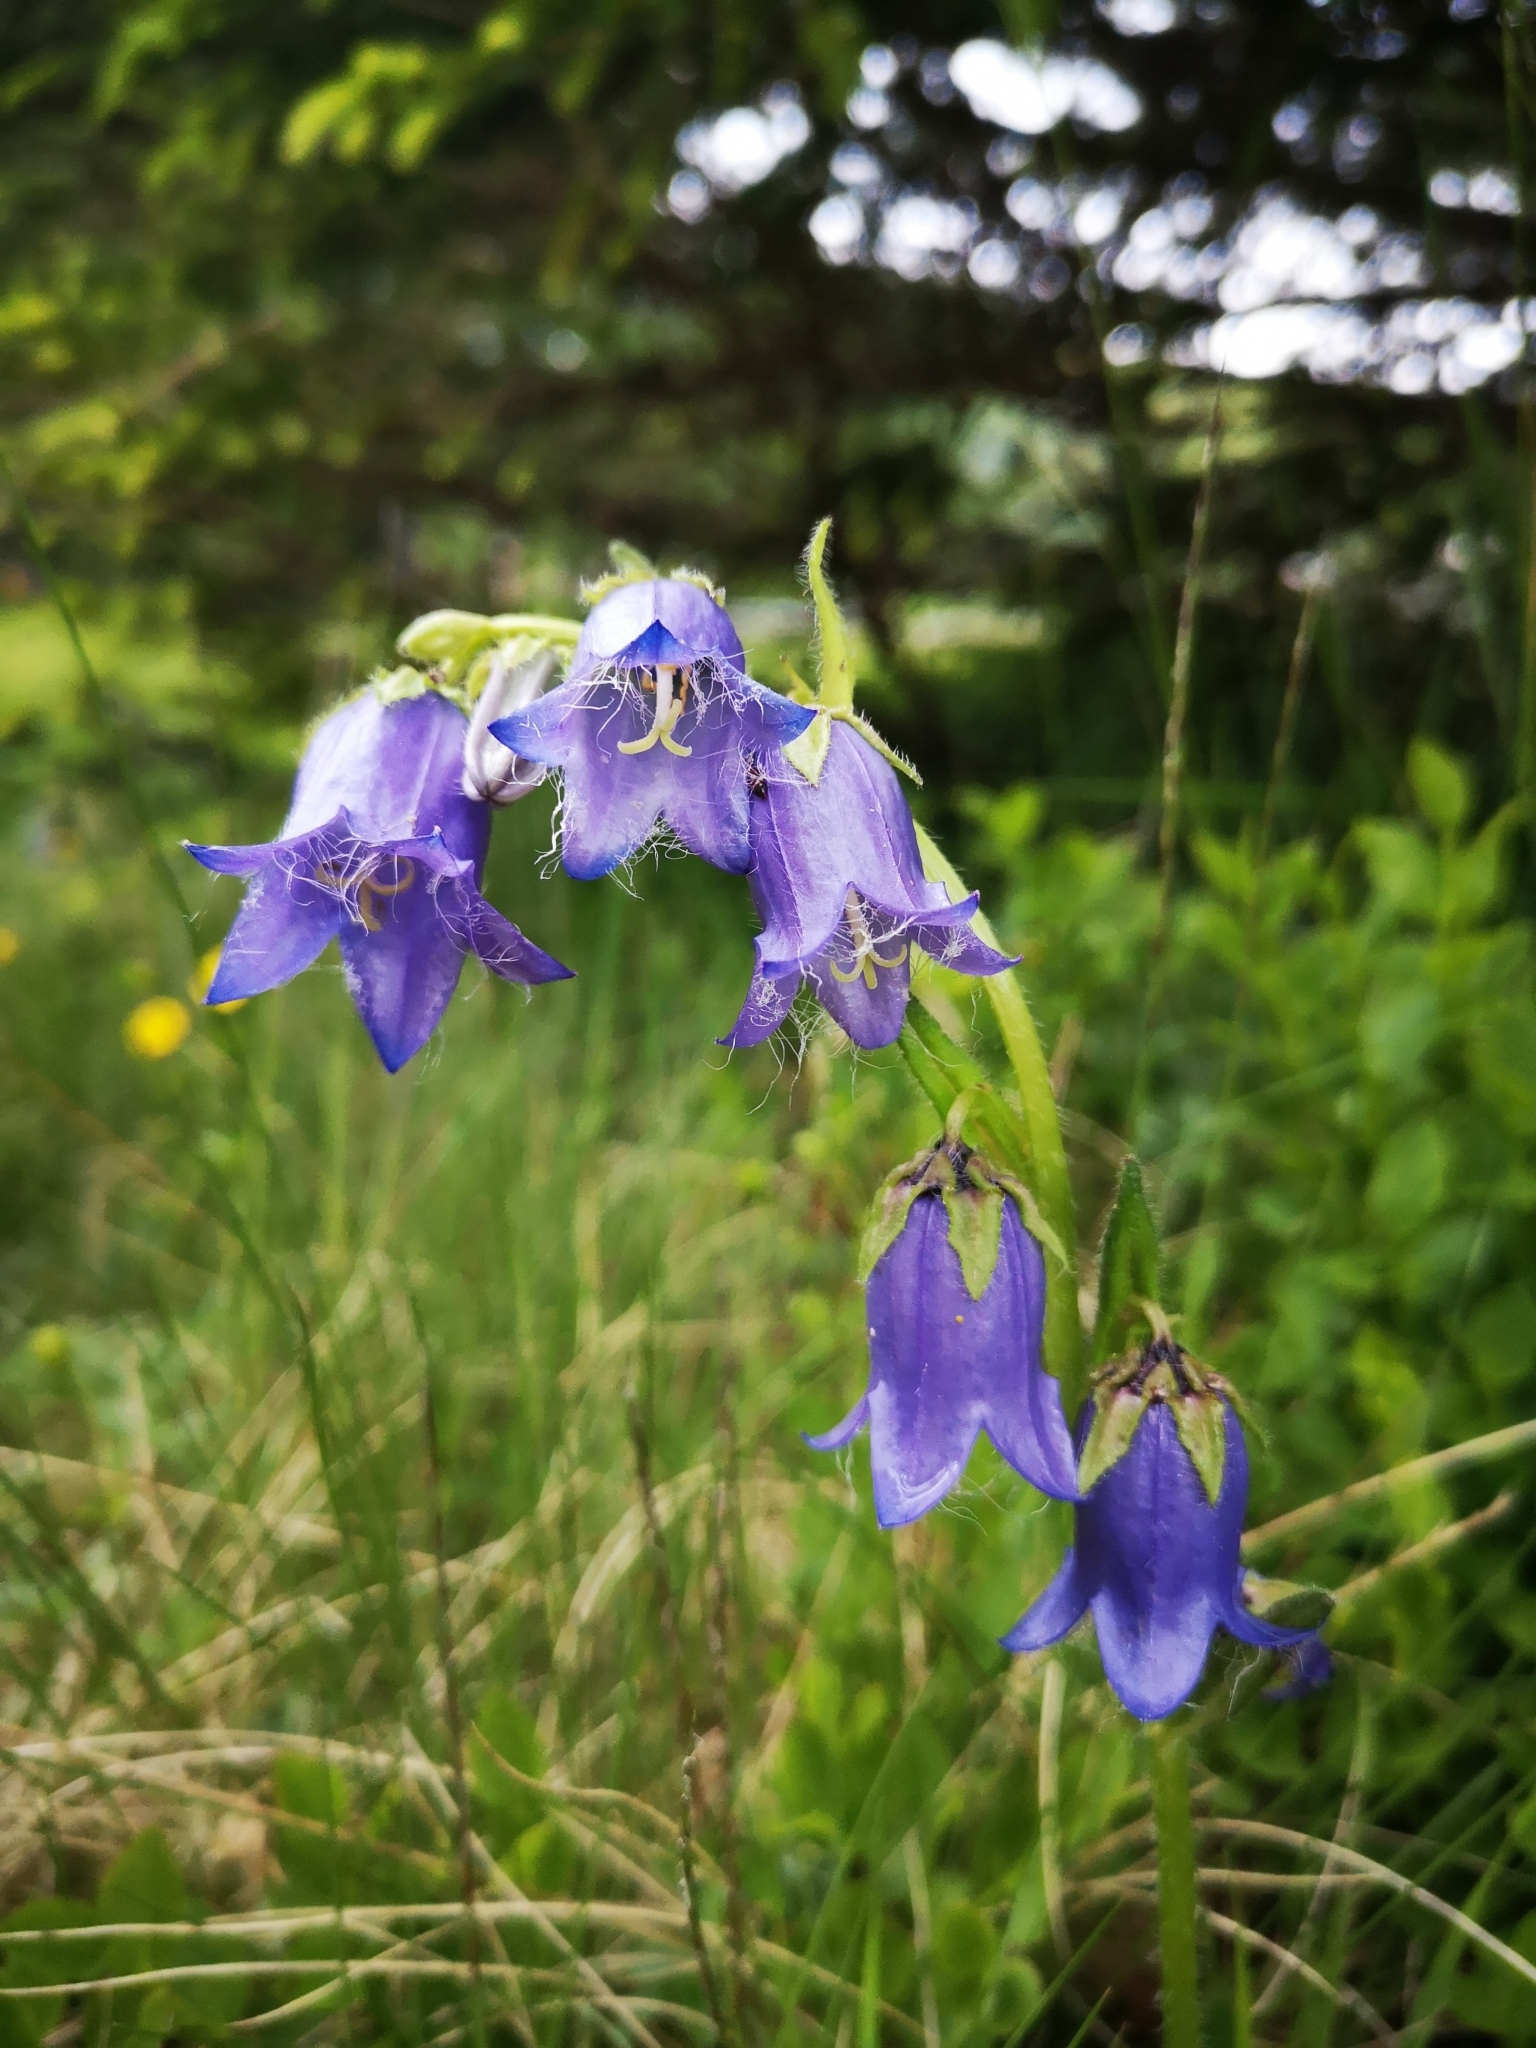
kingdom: Plantae
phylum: Tracheophyta
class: Magnoliopsida
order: Asterales
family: Campanulaceae
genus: Campanula
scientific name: Campanula barbata
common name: Bearded bellflower
